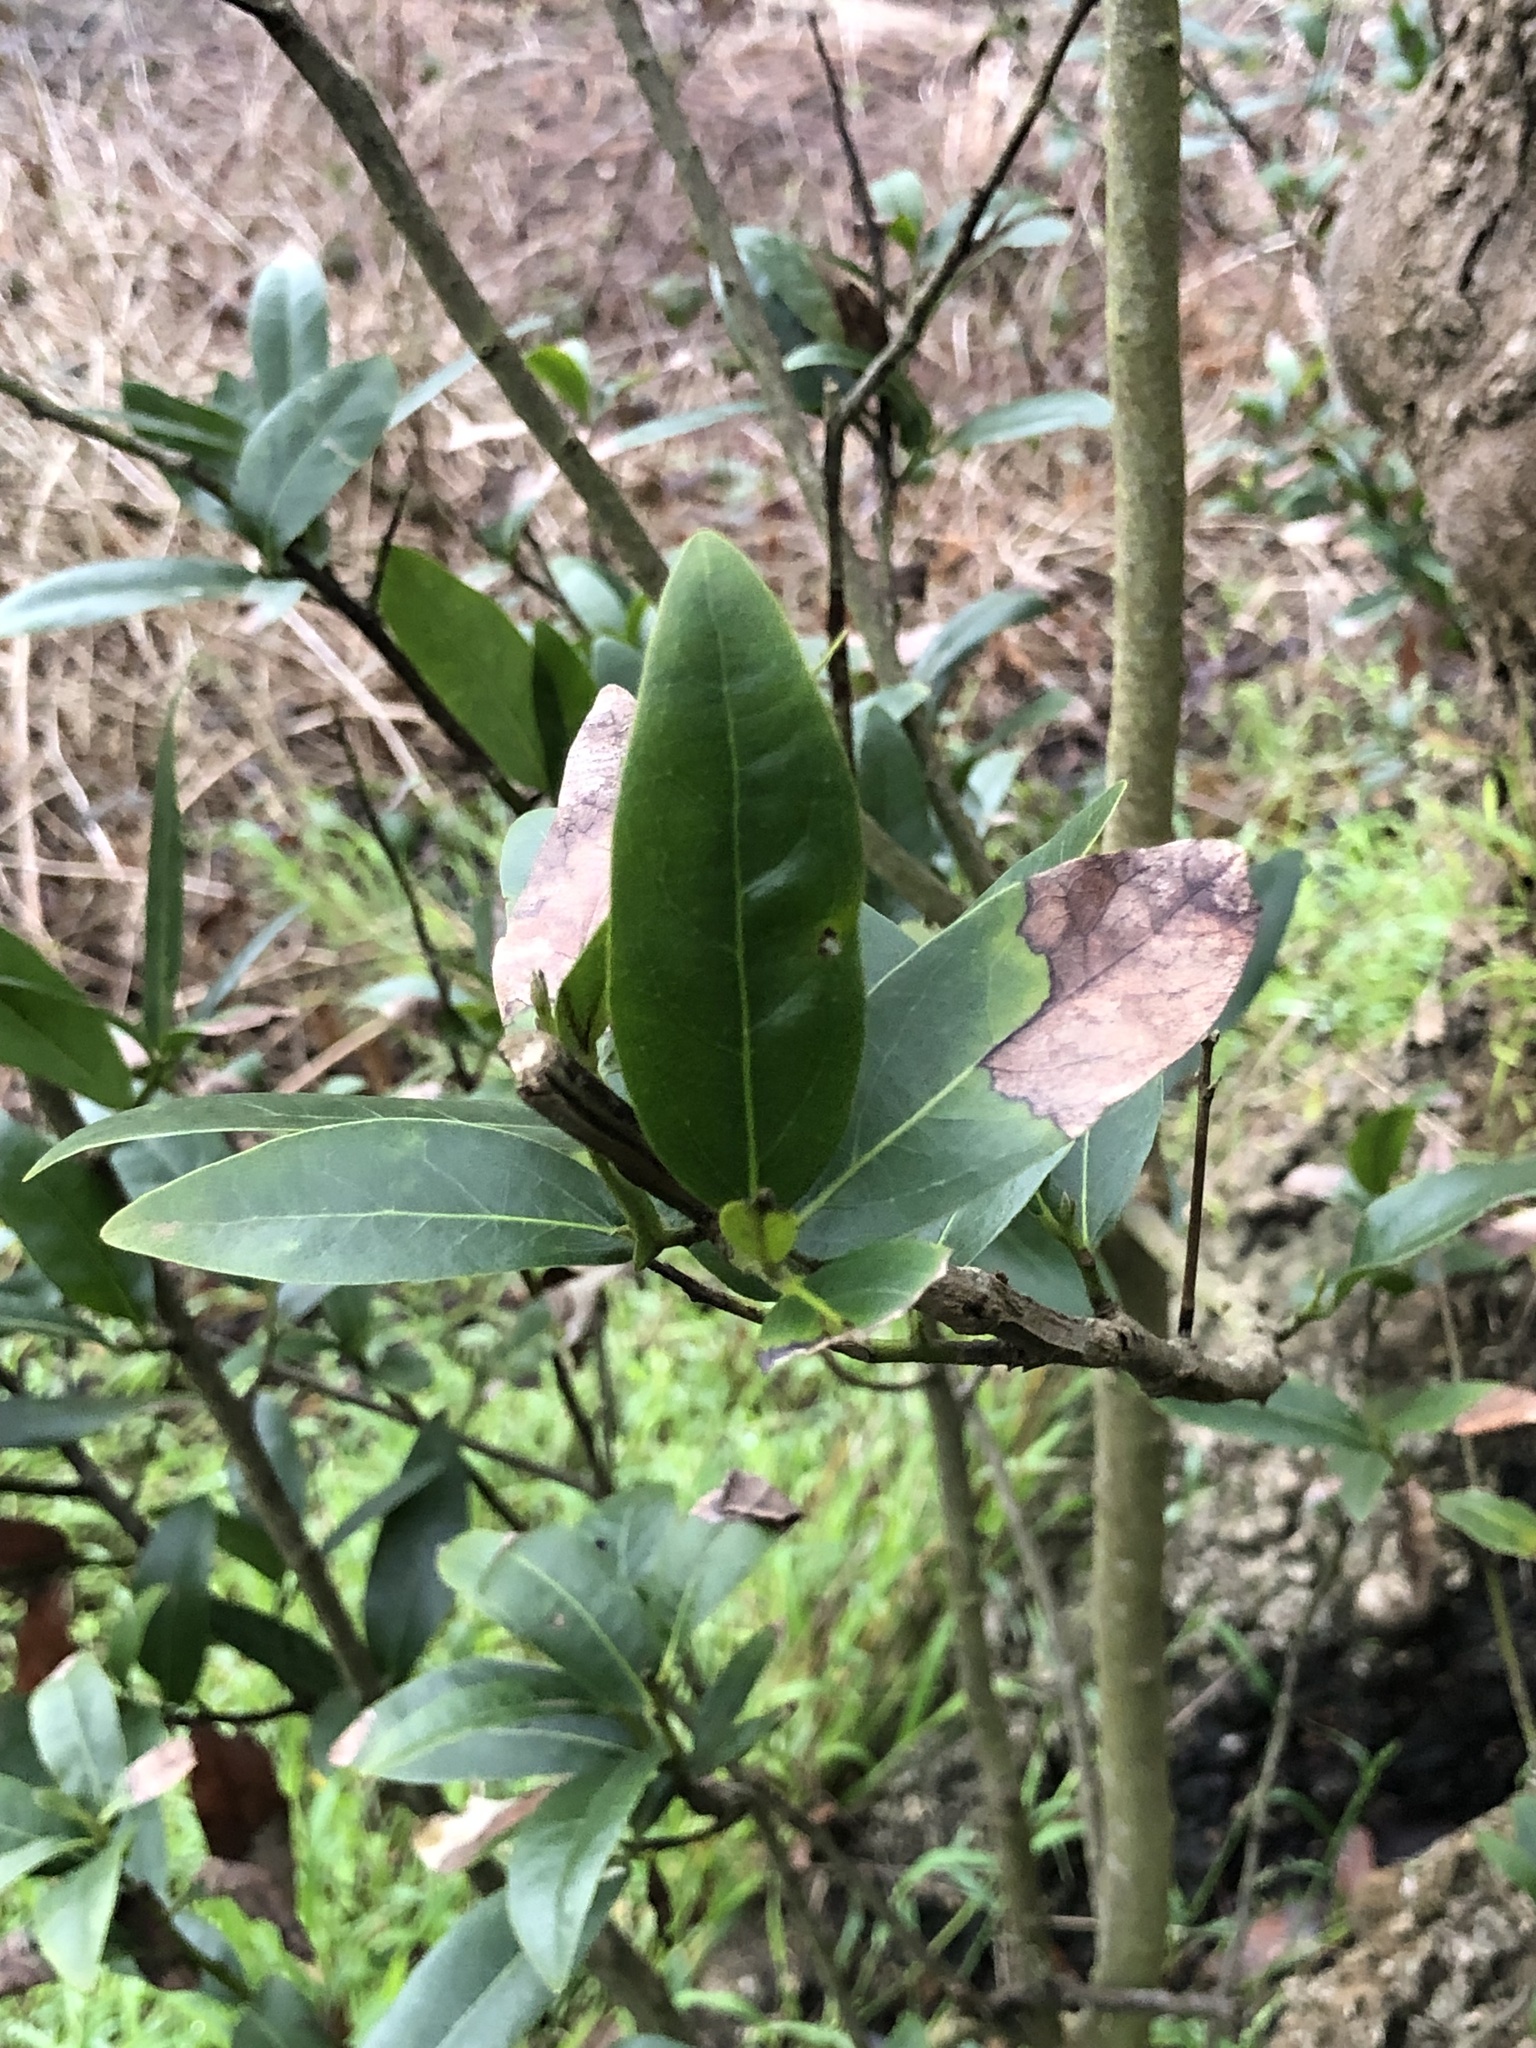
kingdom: Plantae
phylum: Tracheophyta
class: Magnoliopsida
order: Laurales
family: Lauraceae
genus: Umbellularia
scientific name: Umbellularia californica
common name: California bay
